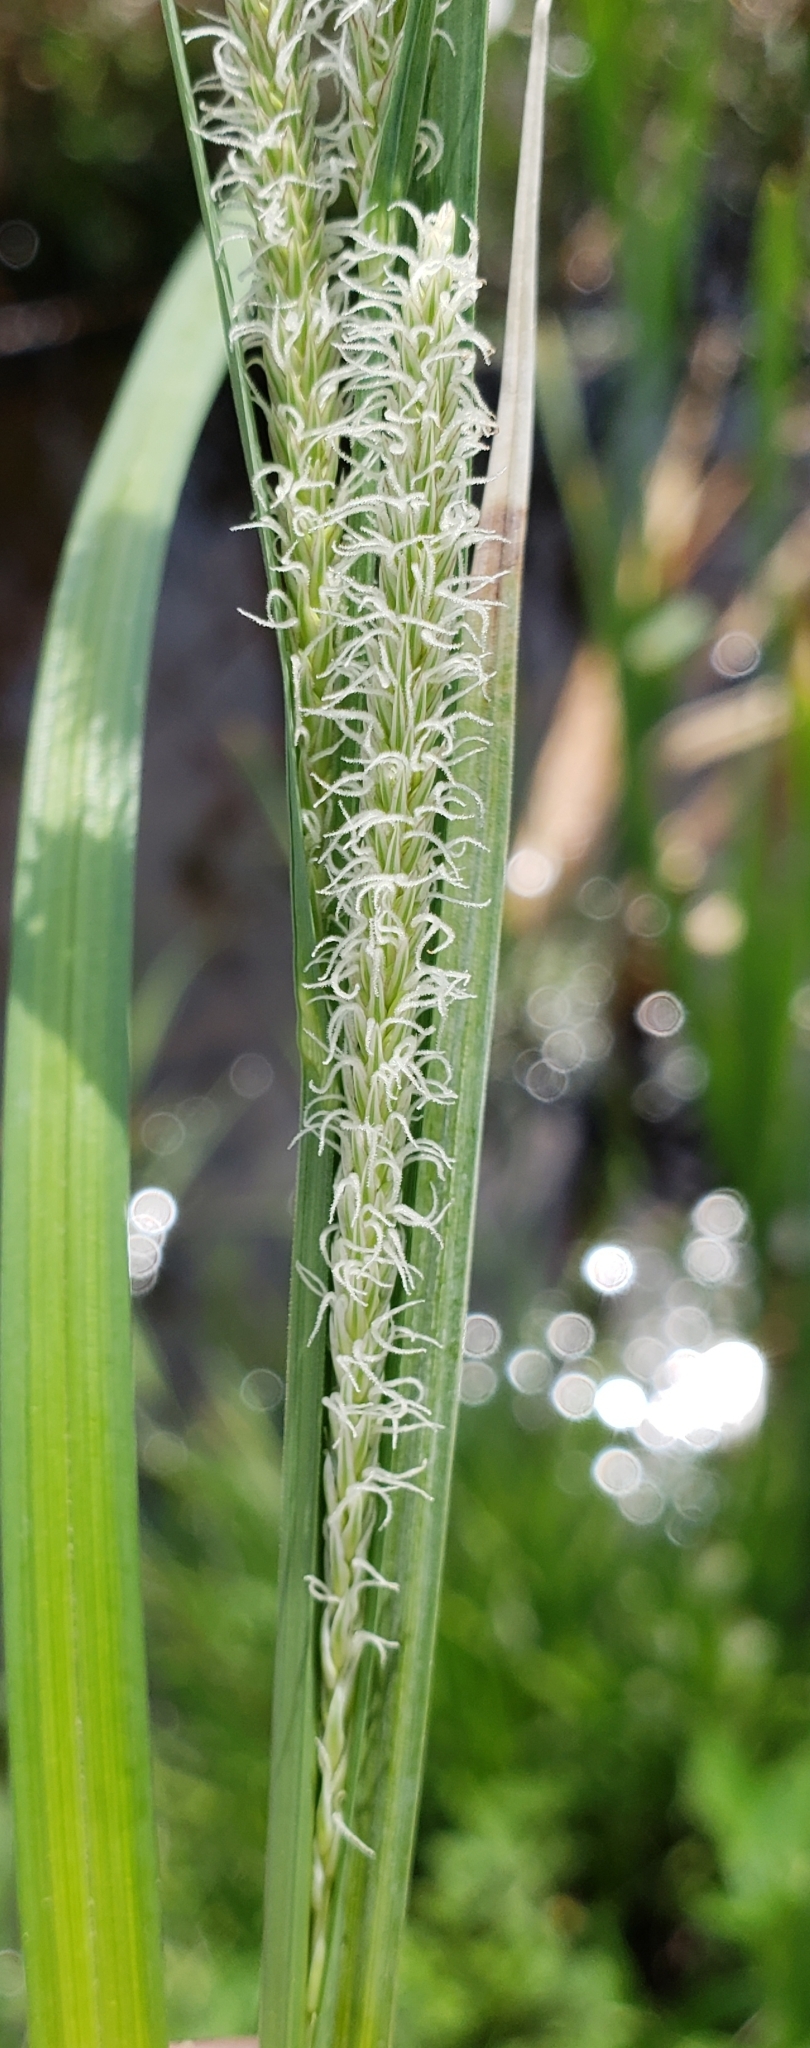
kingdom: Plantae
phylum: Tracheophyta
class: Liliopsida
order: Poales
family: Cyperaceae
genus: Carex
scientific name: Carex aquatilis
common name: Water sedge
